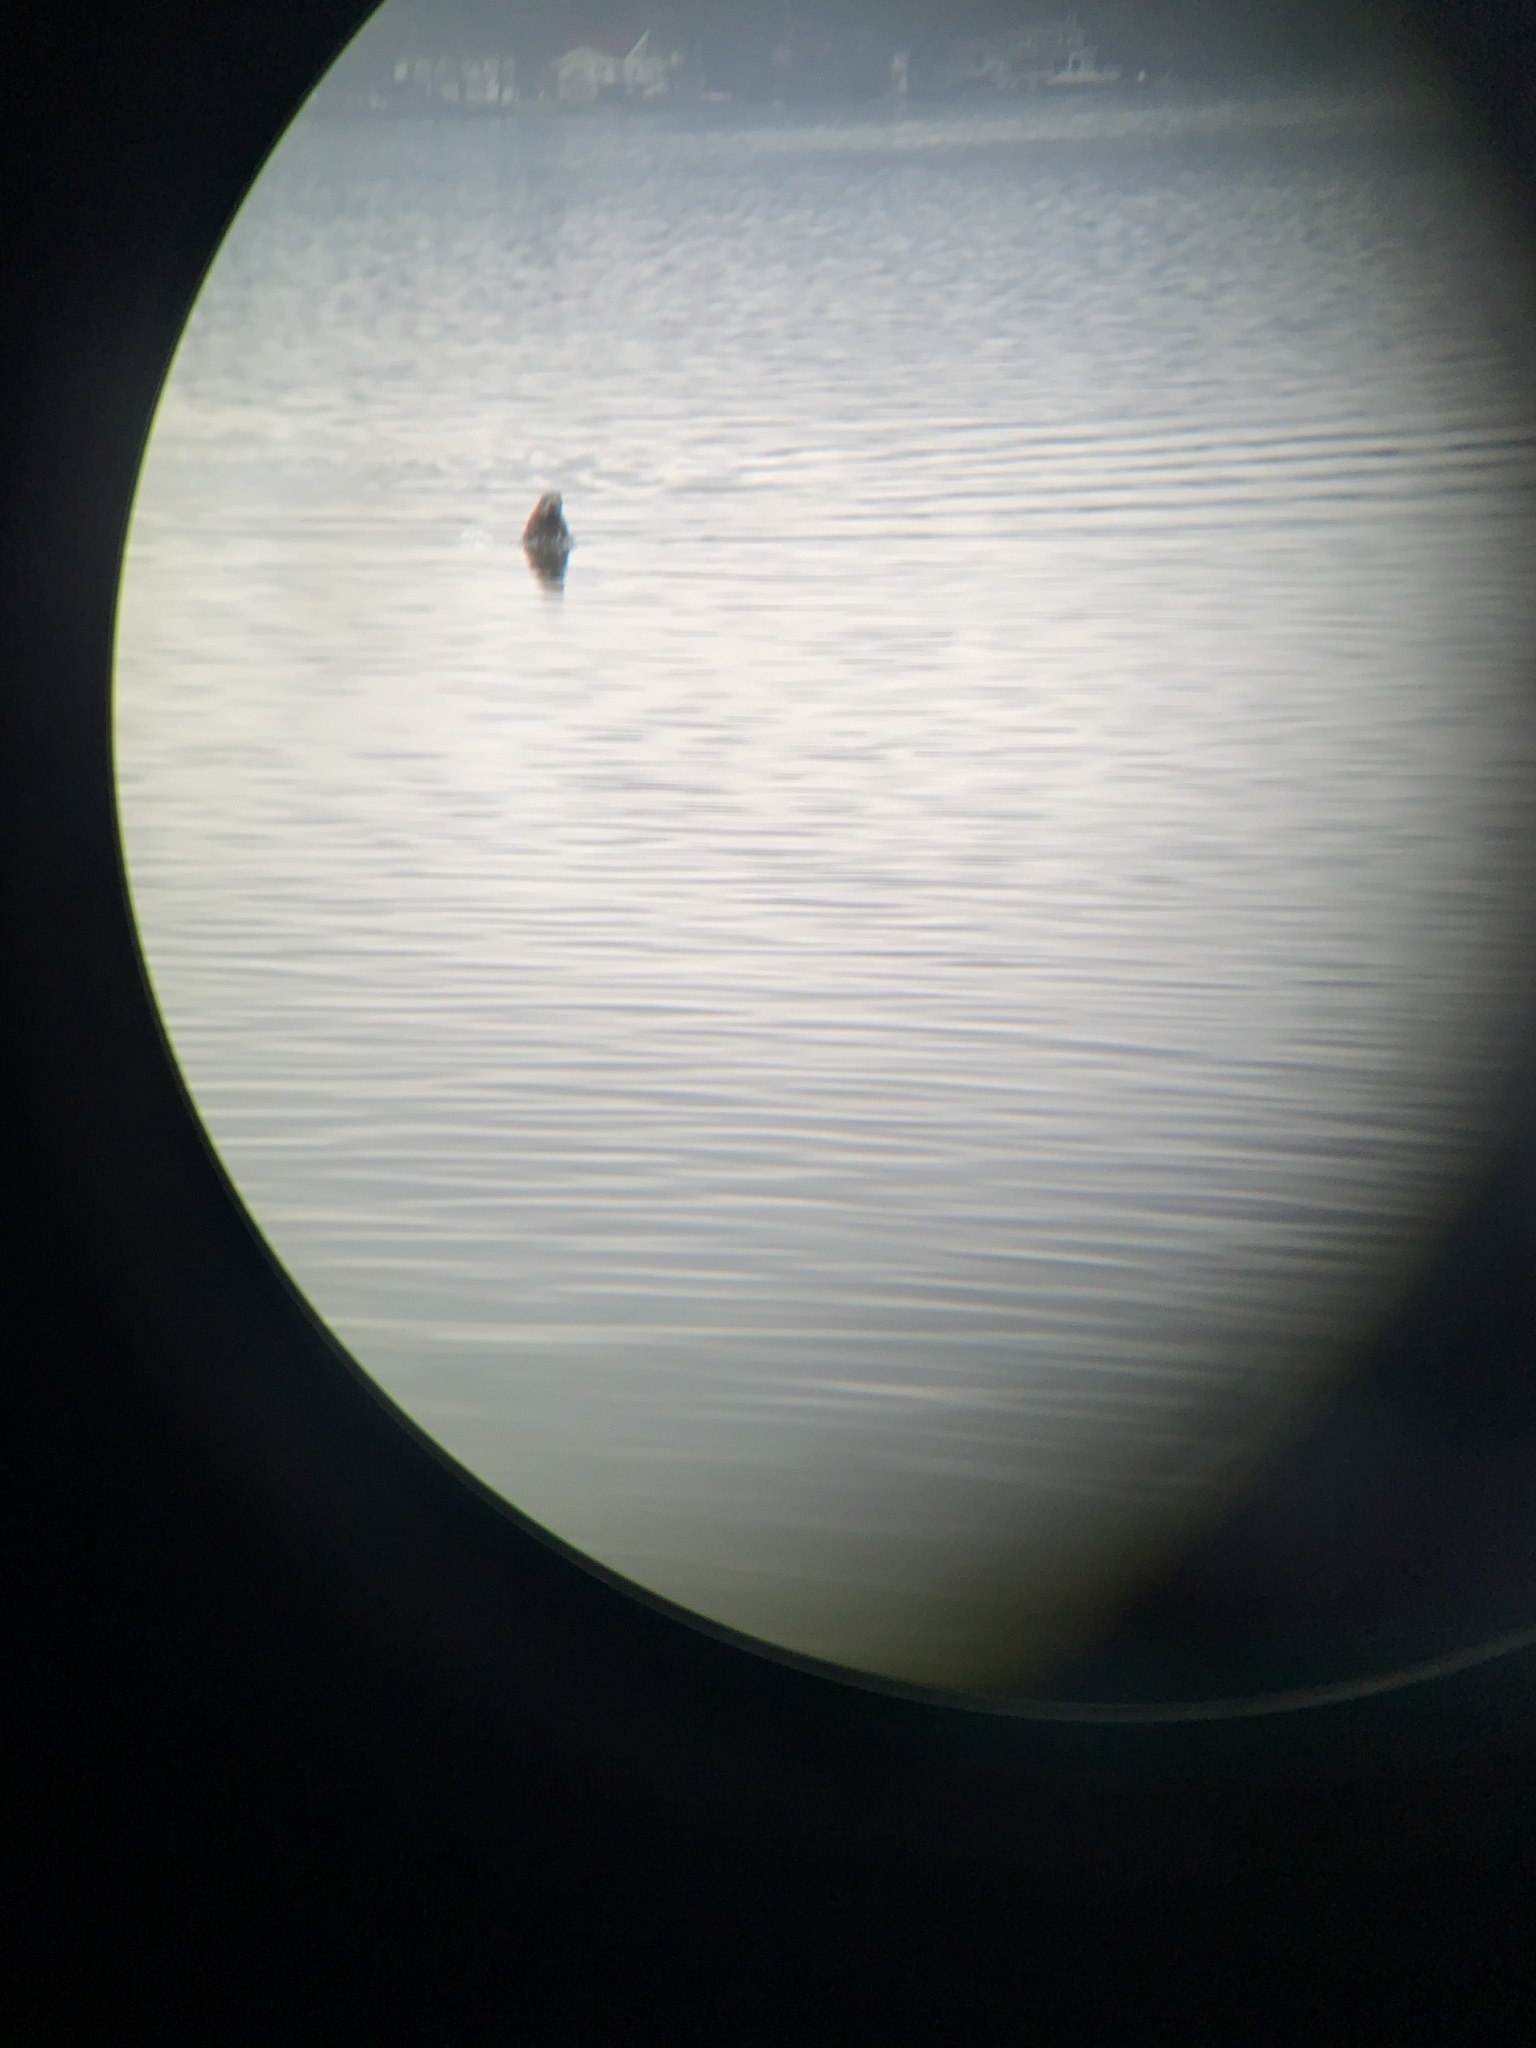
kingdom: Animalia
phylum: Chordata
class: Mammalia
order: Carnivora
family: Phocidae
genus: Phoca
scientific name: Phoca vitulina
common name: Harbor seal
